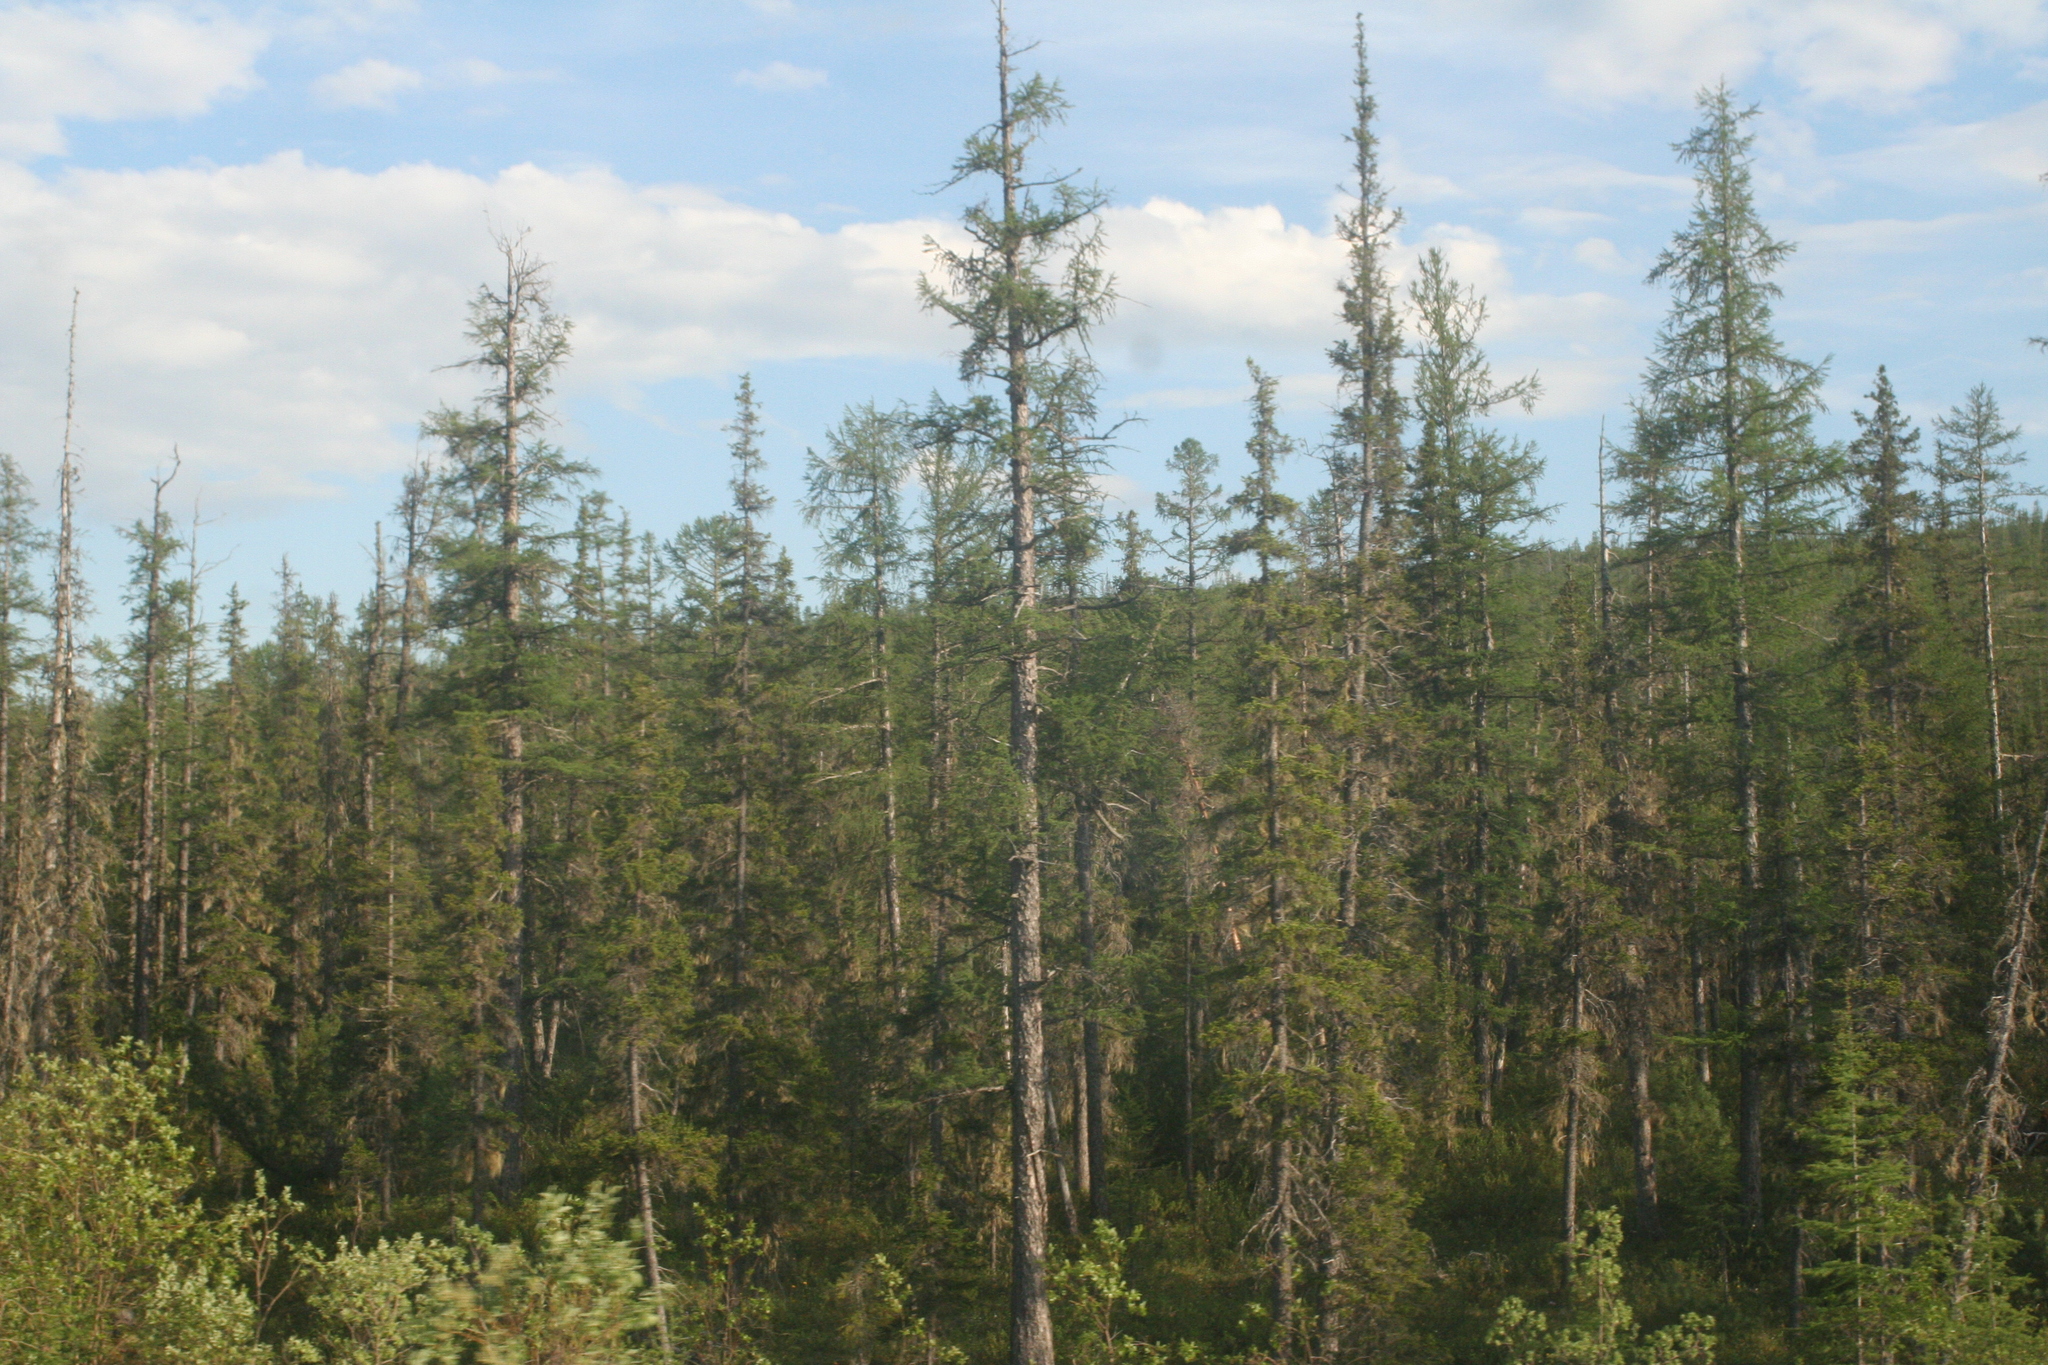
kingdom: Plantae
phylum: Tracheophyta
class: Pinopsida
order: Pinales
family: Pinaceae
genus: Picea
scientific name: Picea obovata
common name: Siberian spruce
